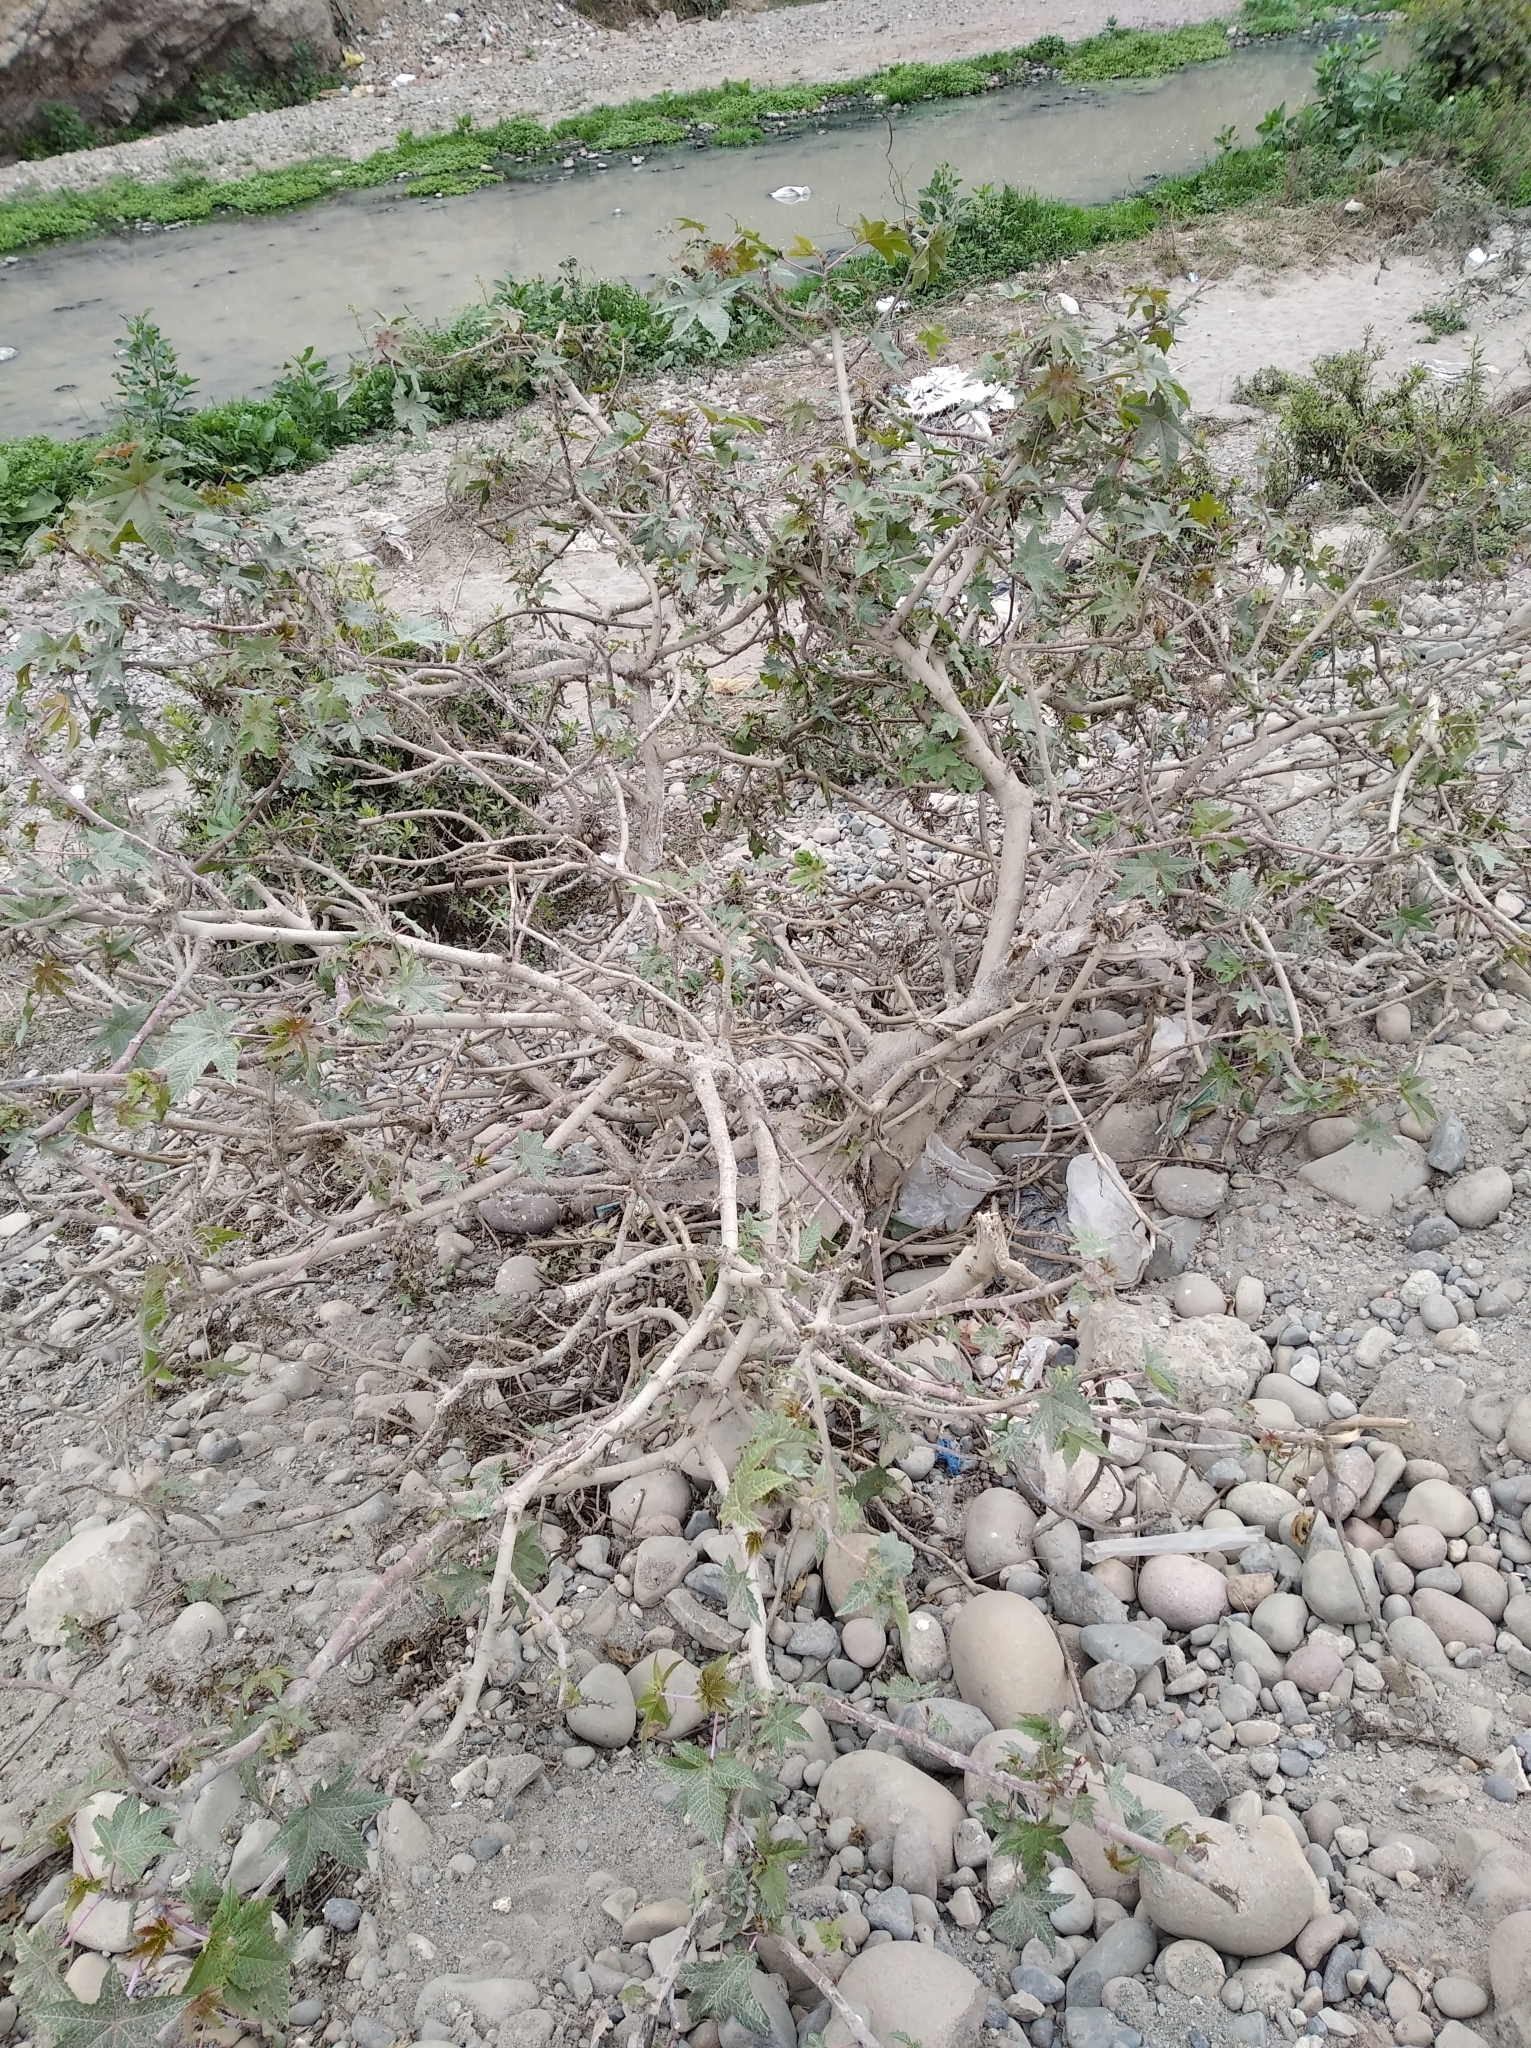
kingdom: Plantae
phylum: Tracheophyta
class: Magnoliopsida
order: Malpighiales
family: Euphorbiaceae
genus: Ricinus
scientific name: Ricinus communis
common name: Castor-oil-plant
